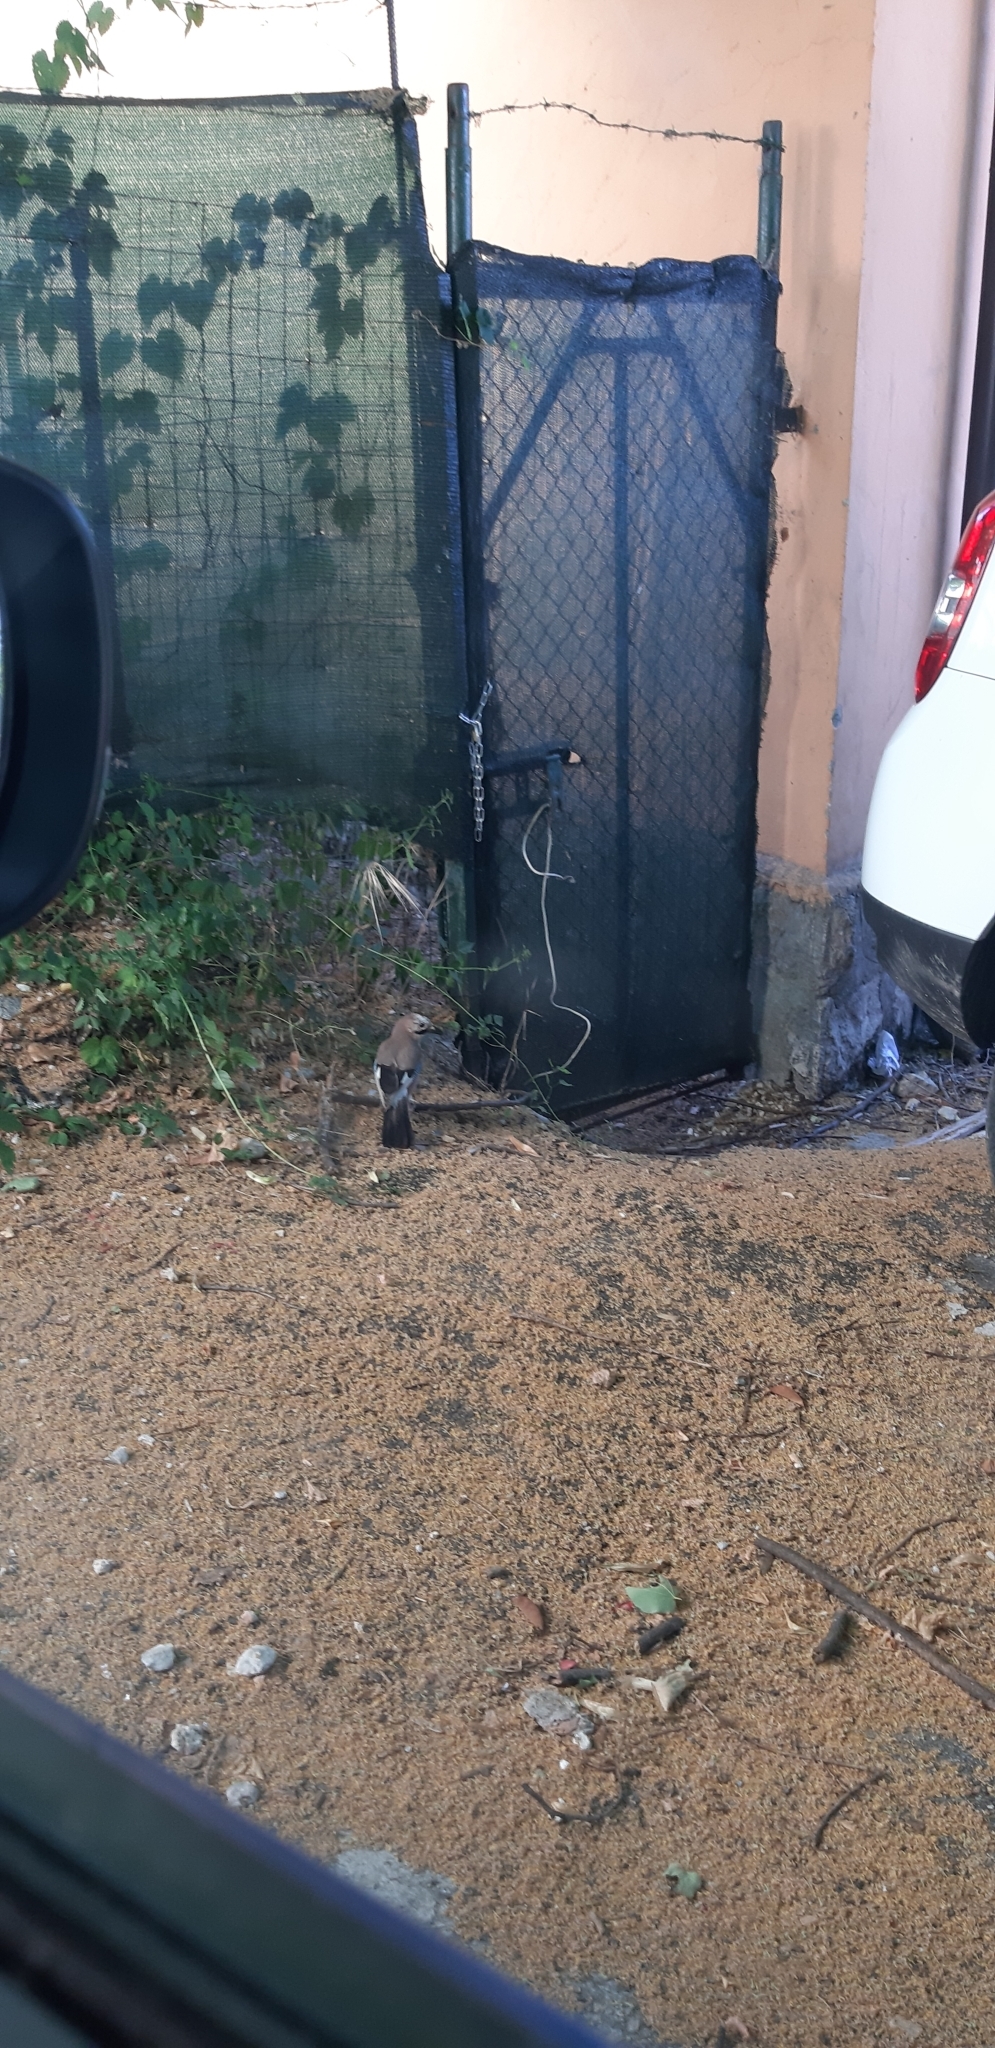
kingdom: Animalia
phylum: Chordata
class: Aves
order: Passeriformes
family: Corvidae
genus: Garrulus
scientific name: Garrulus glandarius
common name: Eurasian jay
